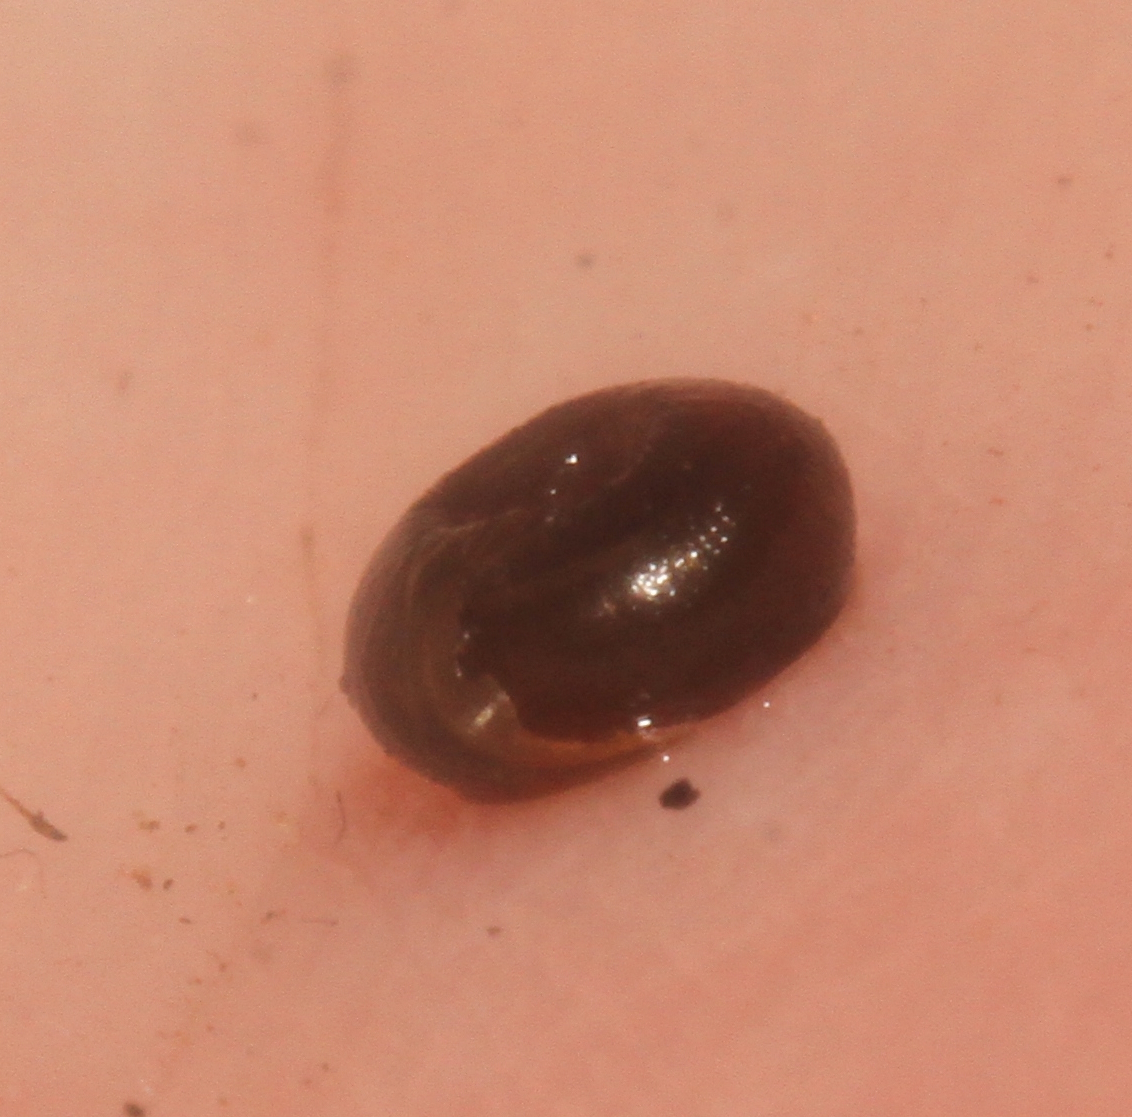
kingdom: Animalia
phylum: Mollusca
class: Gastropoda
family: Planorbidae
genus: Bathyomphalus
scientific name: Bathyomphalus contortus
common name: Twisted ramshorn
